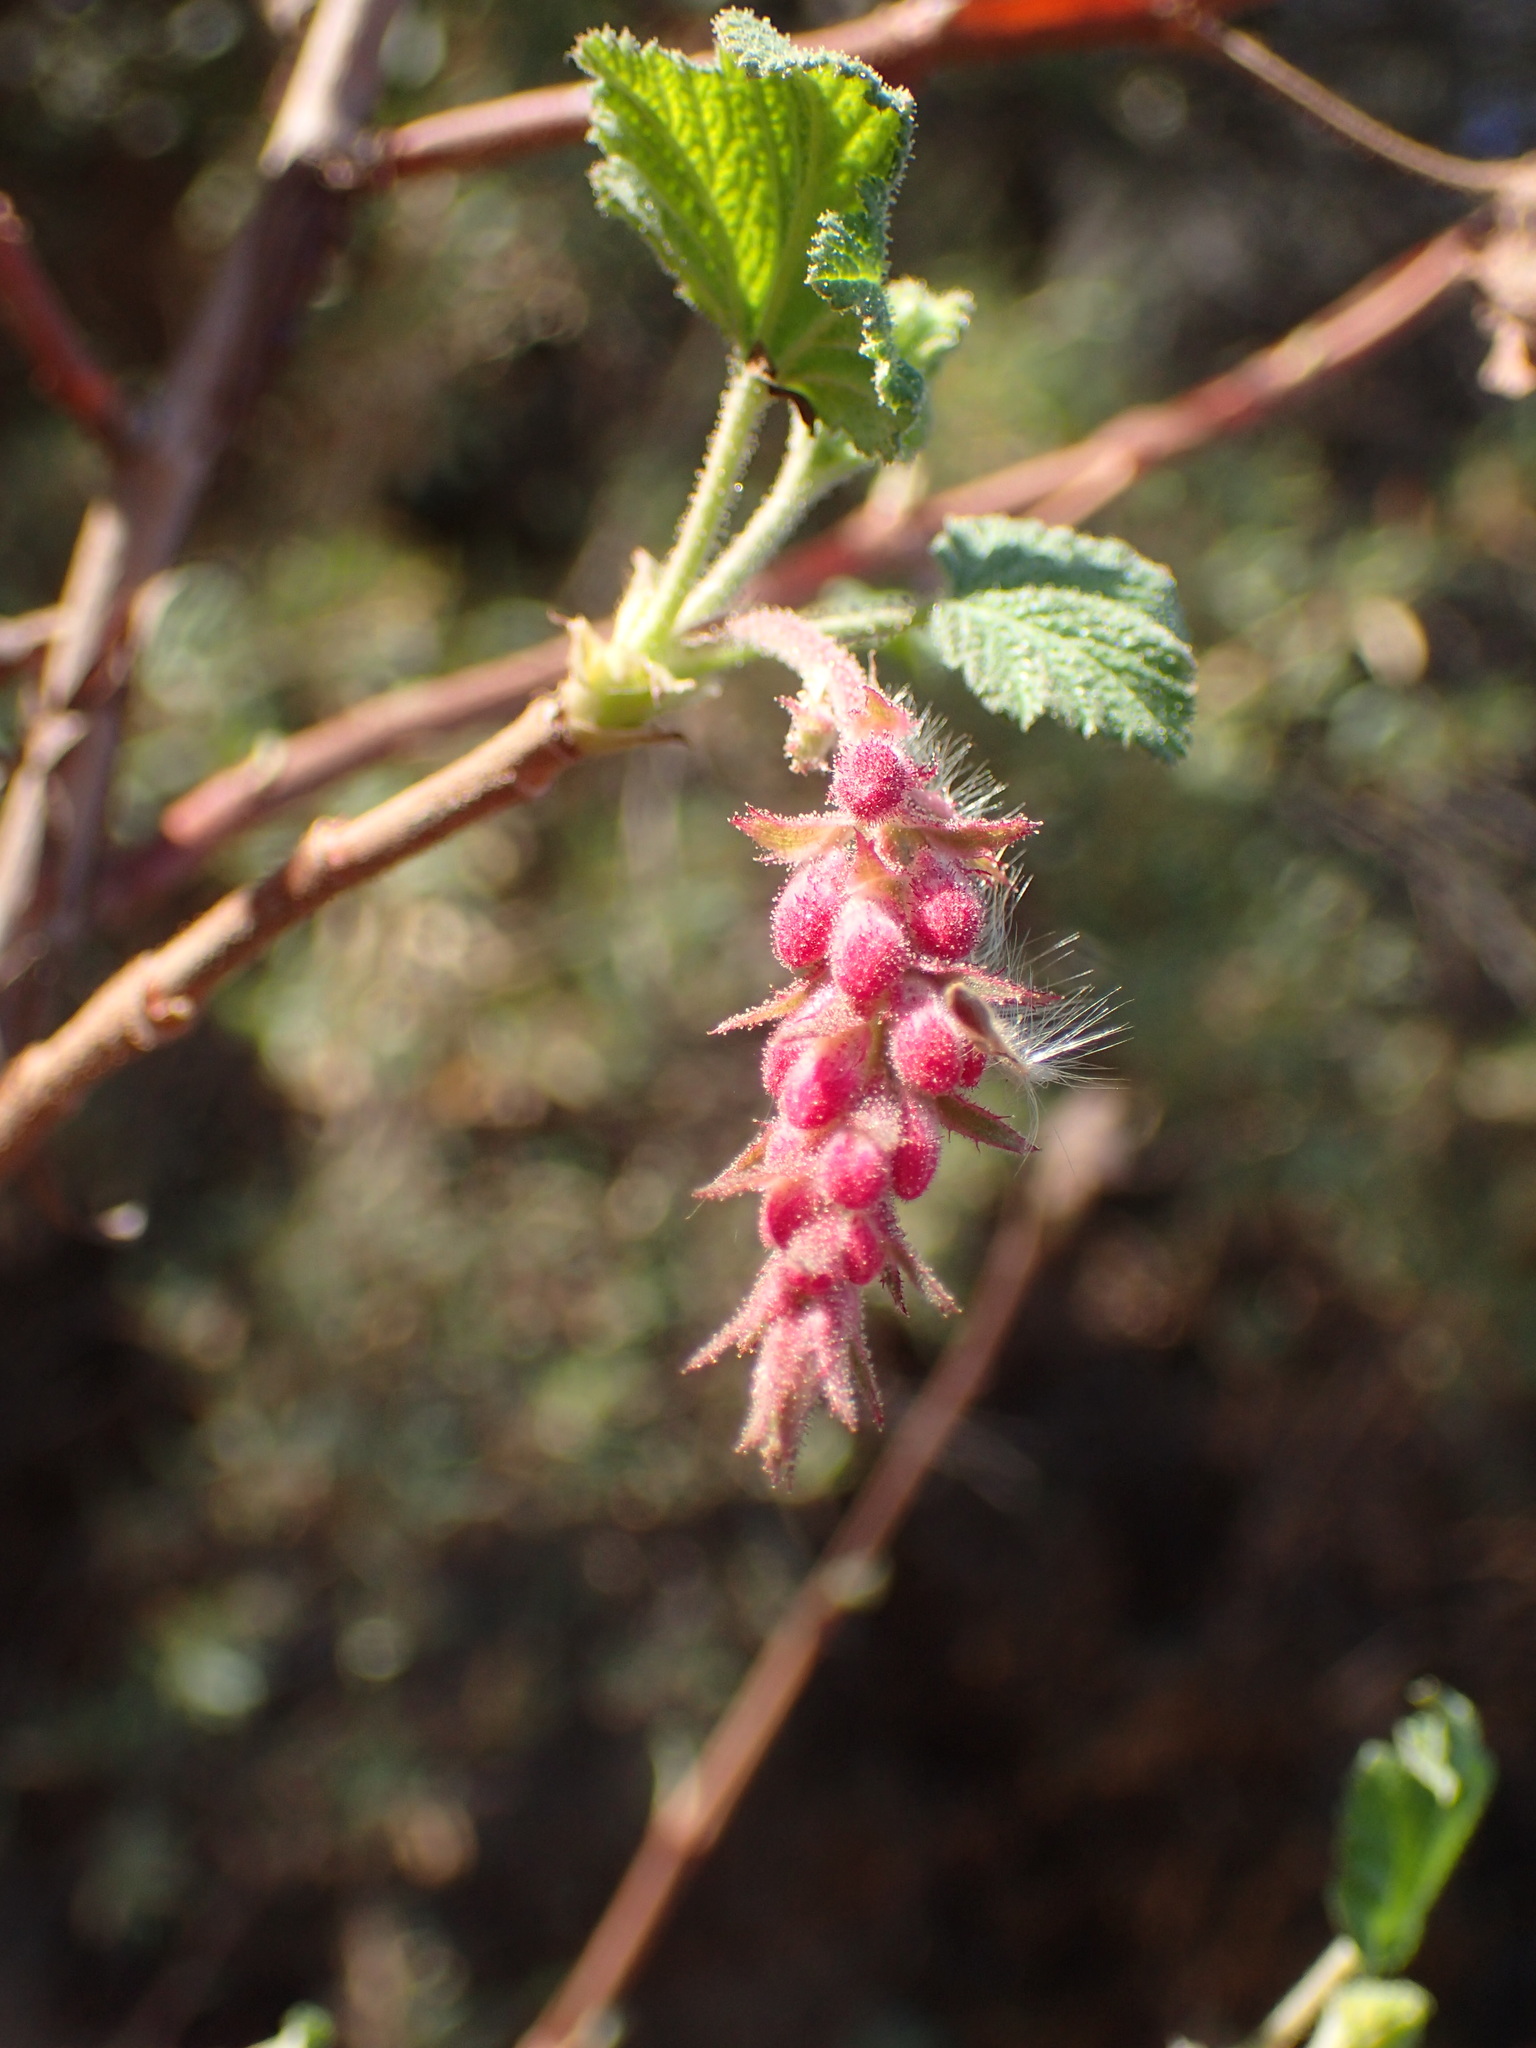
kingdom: Plantae
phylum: Tracheophyta
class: Magnoliopsida
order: Saxifragales
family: Grossulariaceae
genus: Ribes
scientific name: Ribes malvaceum
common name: Chaparral currant
